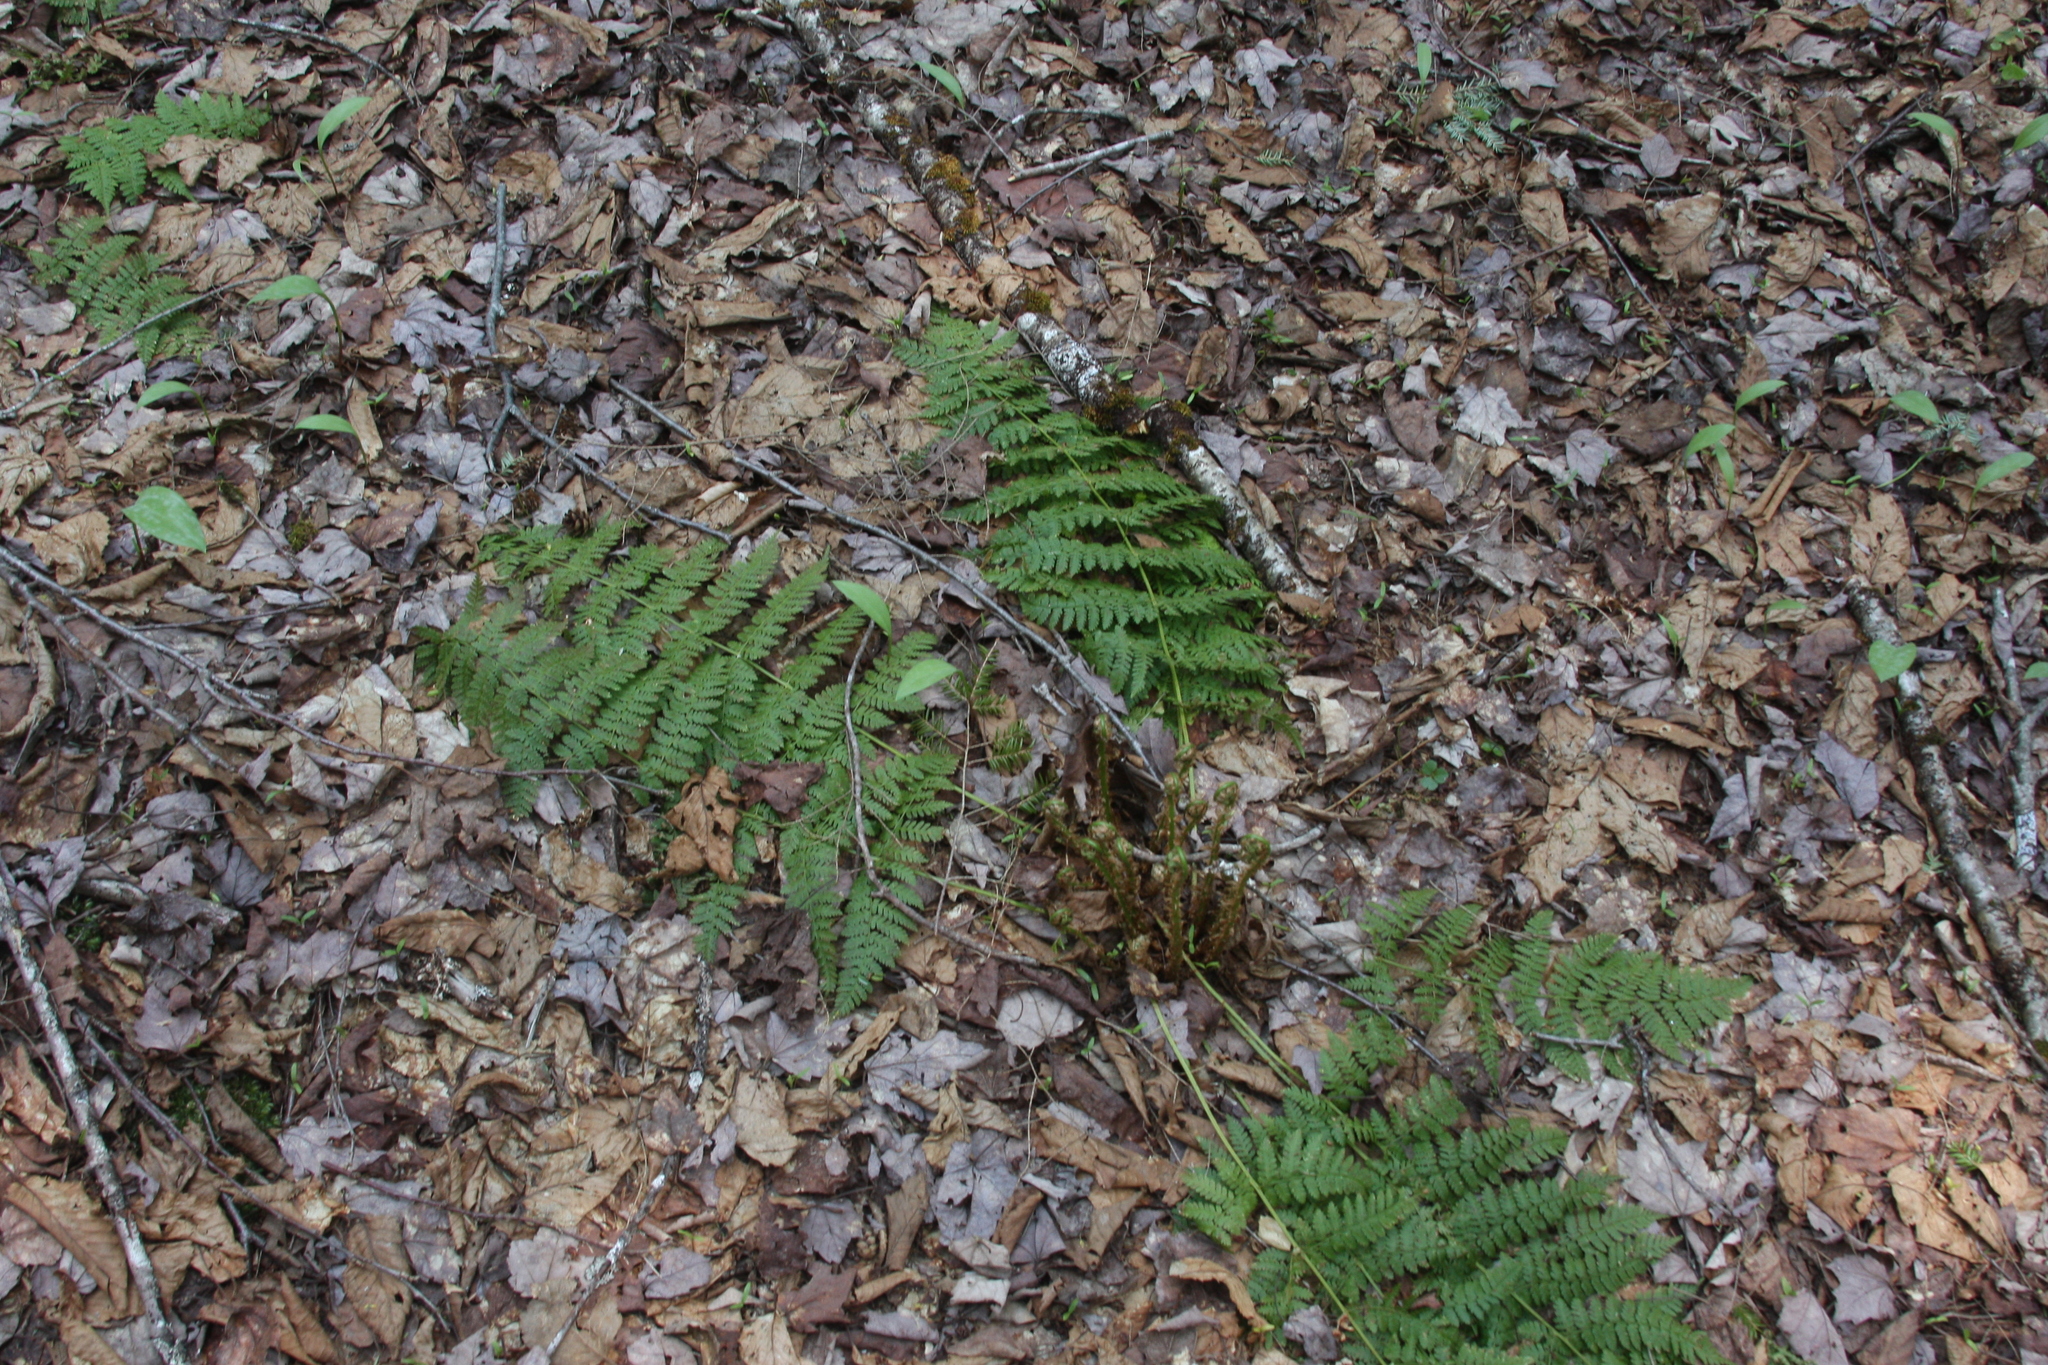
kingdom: Plantae
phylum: Tracheophyta
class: Polypodiopsida
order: Polypodiales
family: Dryopteridaceae
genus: Dryopteris
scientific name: Dryopteris intermedia
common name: Evergreen wood fern
